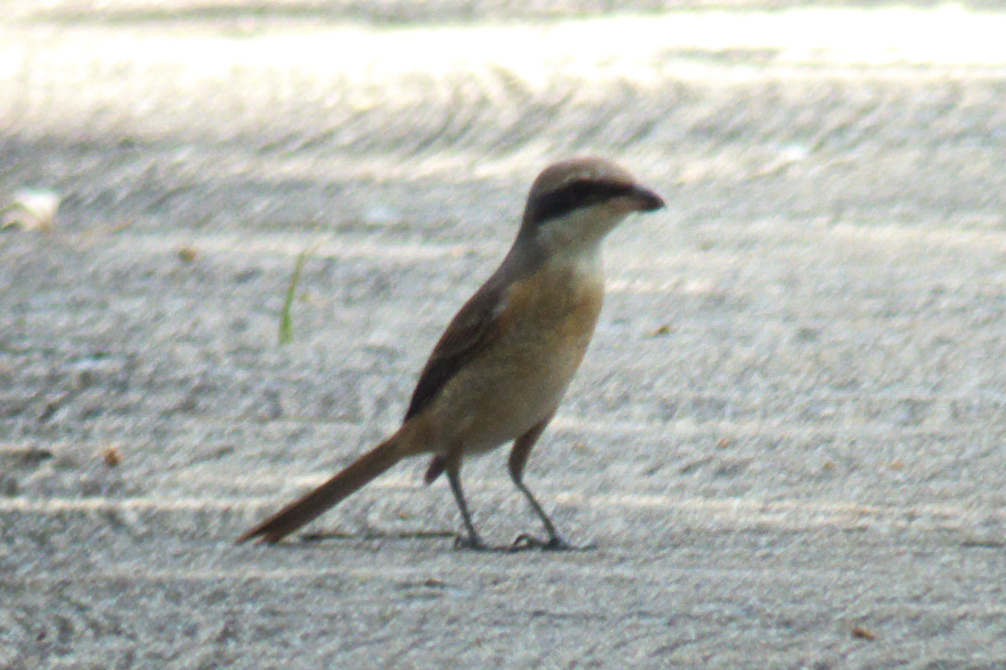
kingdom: Animalia
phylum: Chordata
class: Aves
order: Passeriformes
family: Laniidae
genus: Lanius
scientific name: Lanius cristatus
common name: Brown shrike
